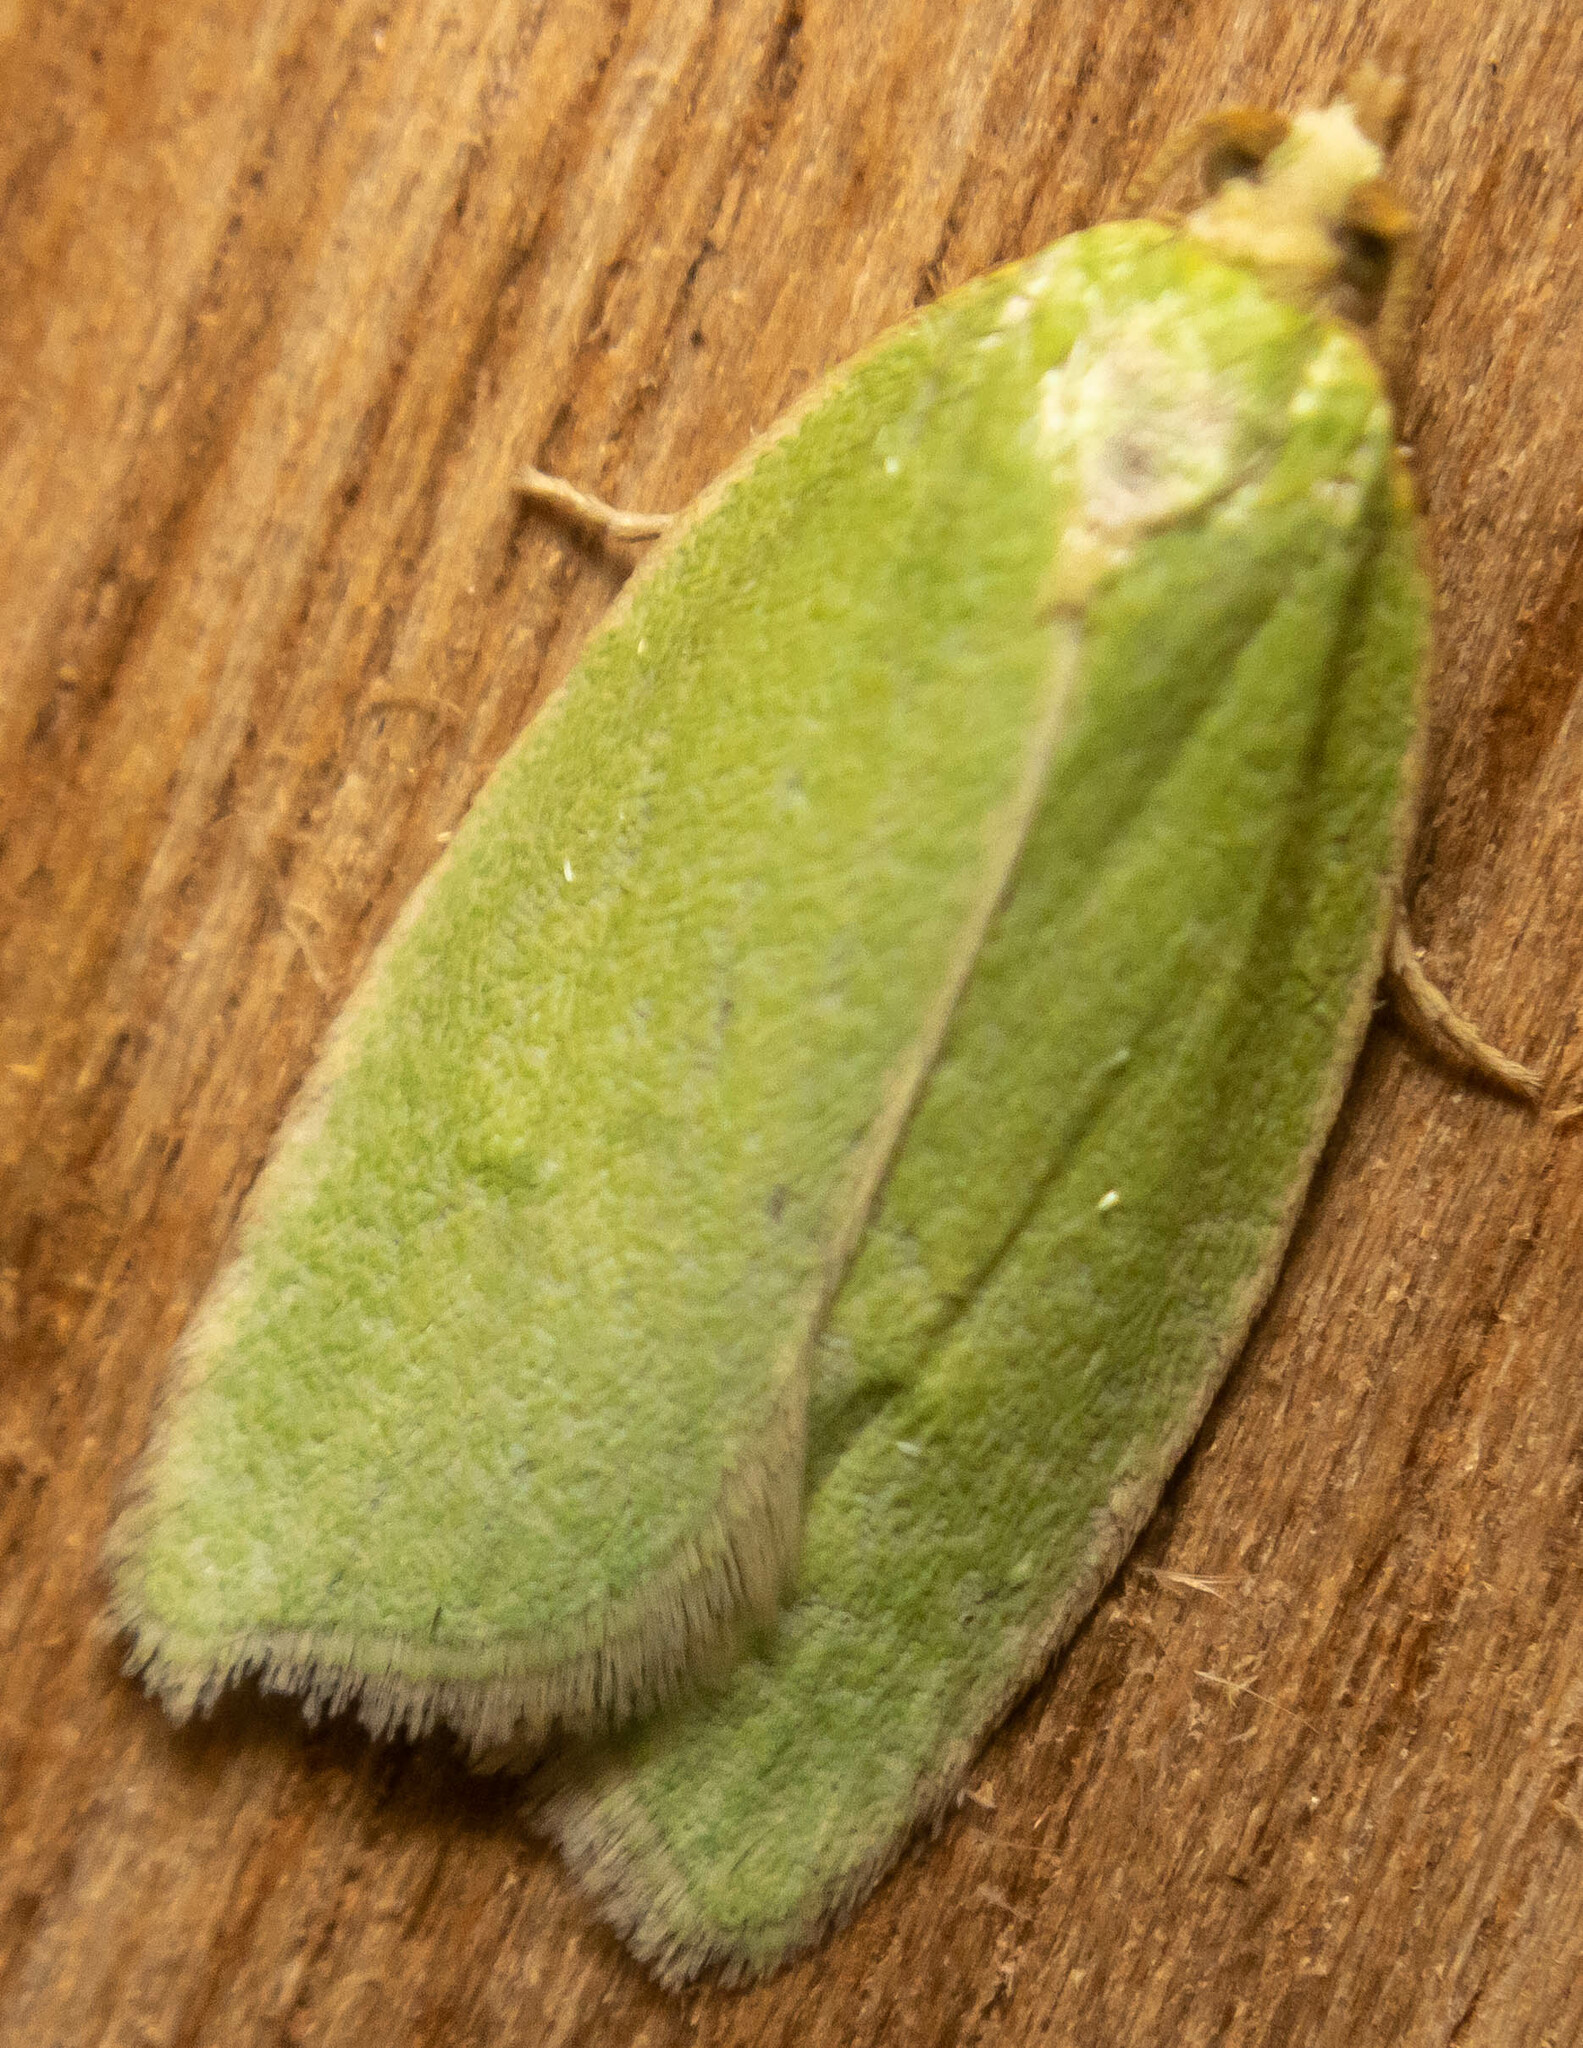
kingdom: Animalia
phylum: Arthropoda
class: Insecta
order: Lepidoptera
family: Tortricidae
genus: Tortrix
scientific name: Tortrix viridana
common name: Green oak tortrix
